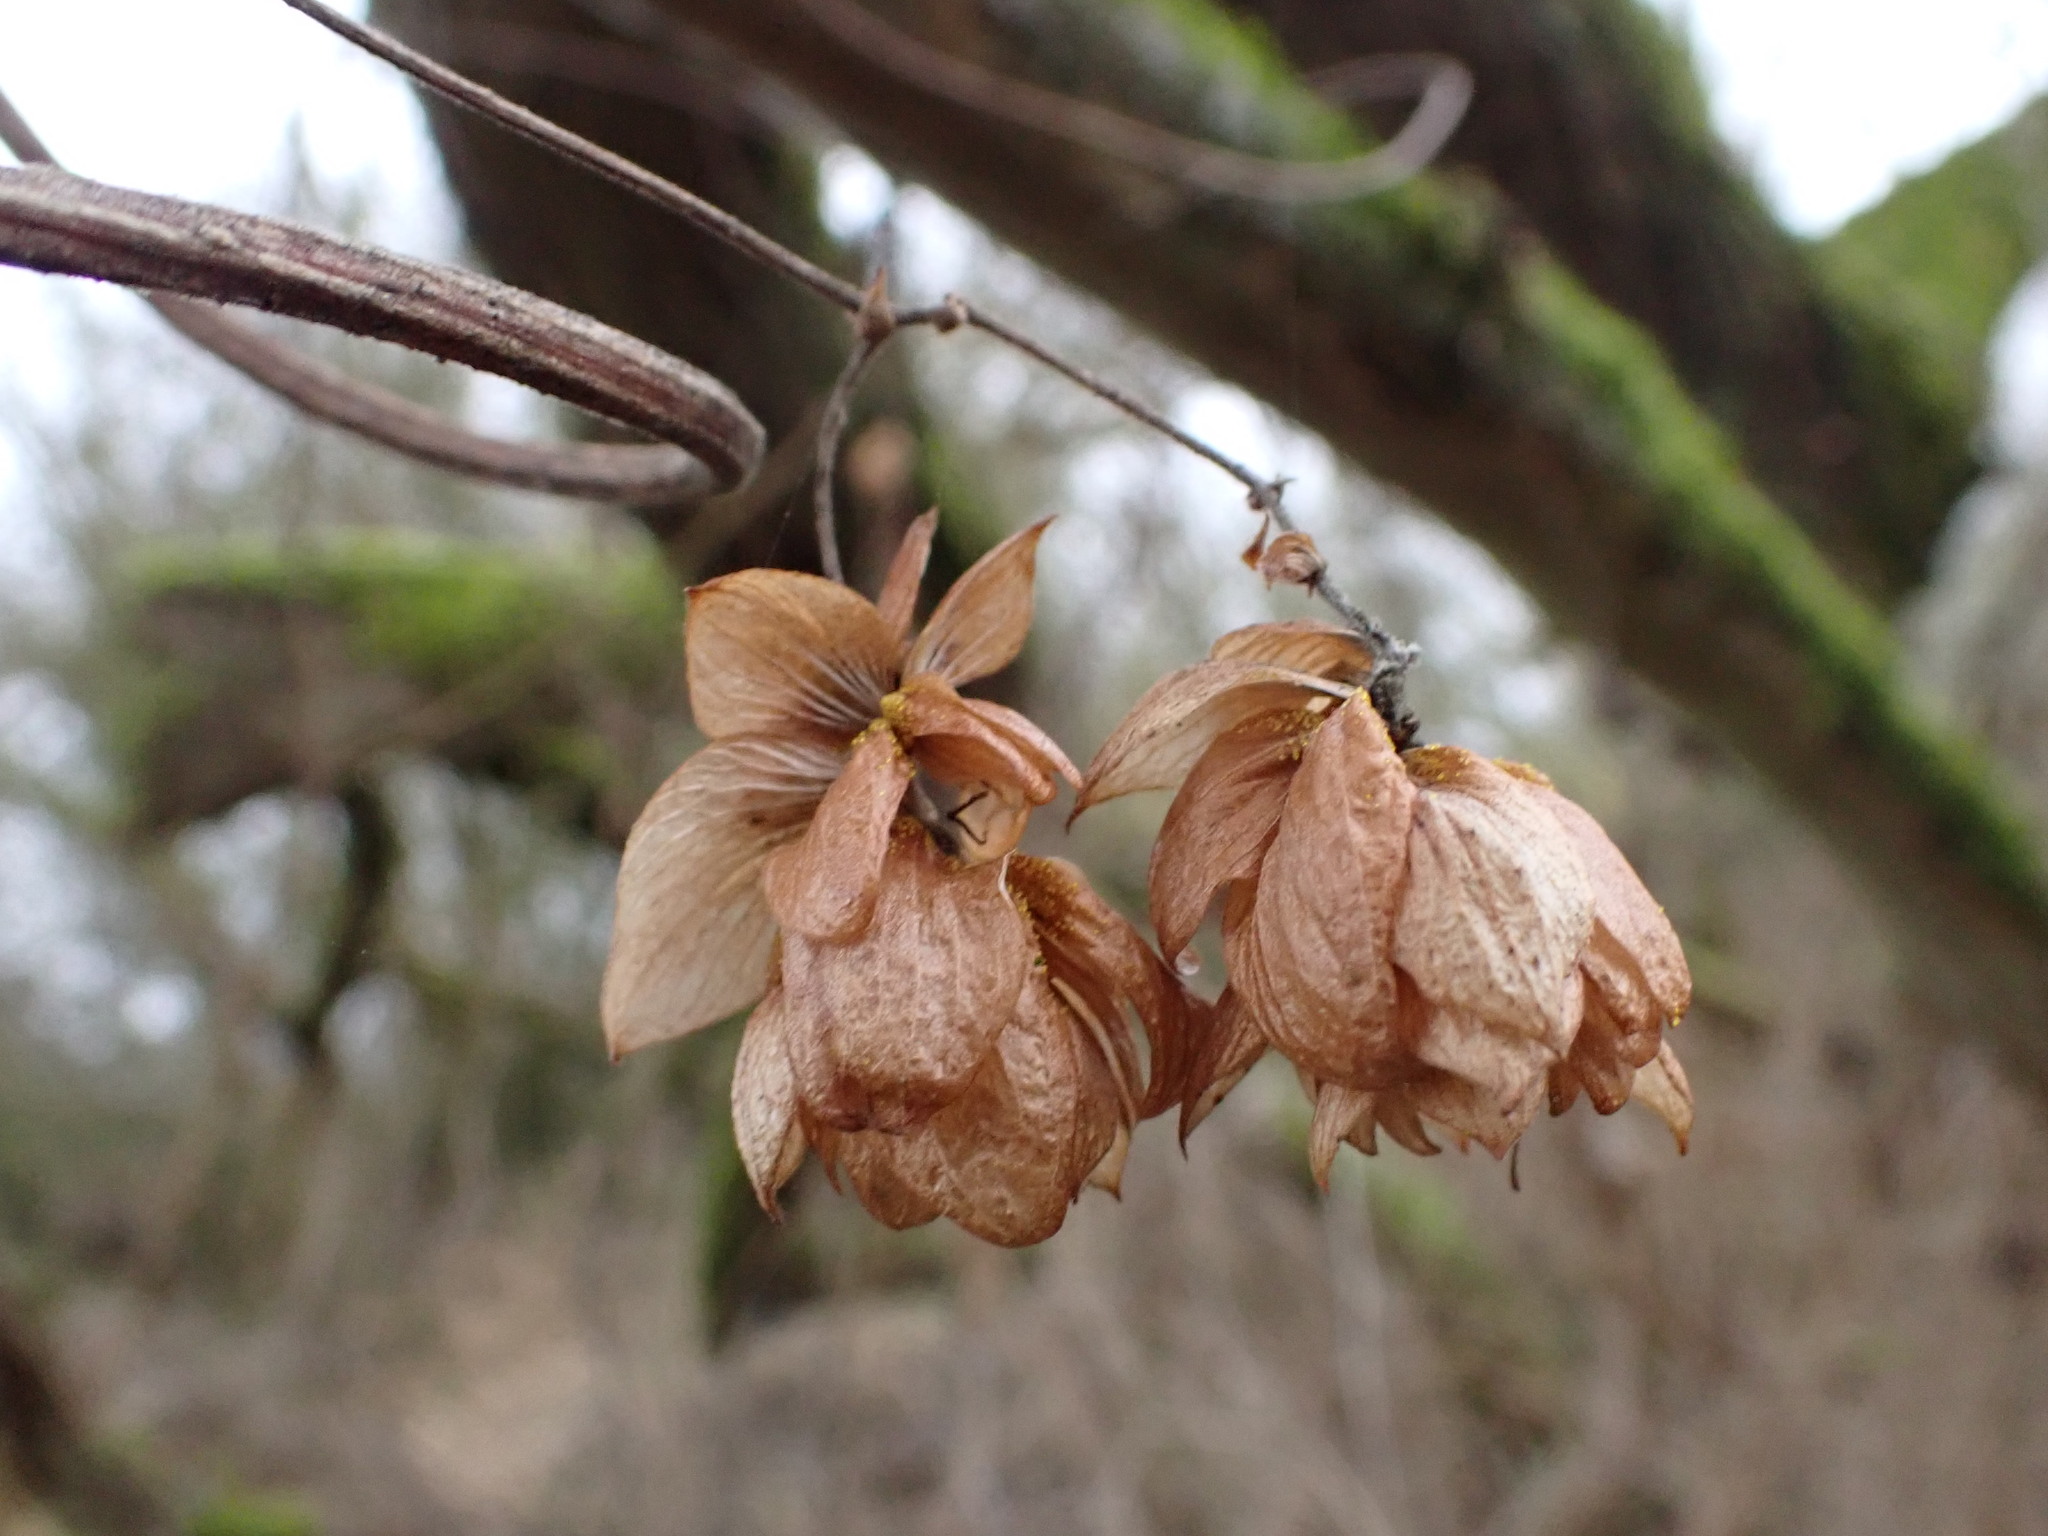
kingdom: Plantae
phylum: Tracheophyta
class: Magnoliopsida
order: Rosales
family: Cannabaceae
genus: Humulus
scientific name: Humulus lupulus
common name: Hop
